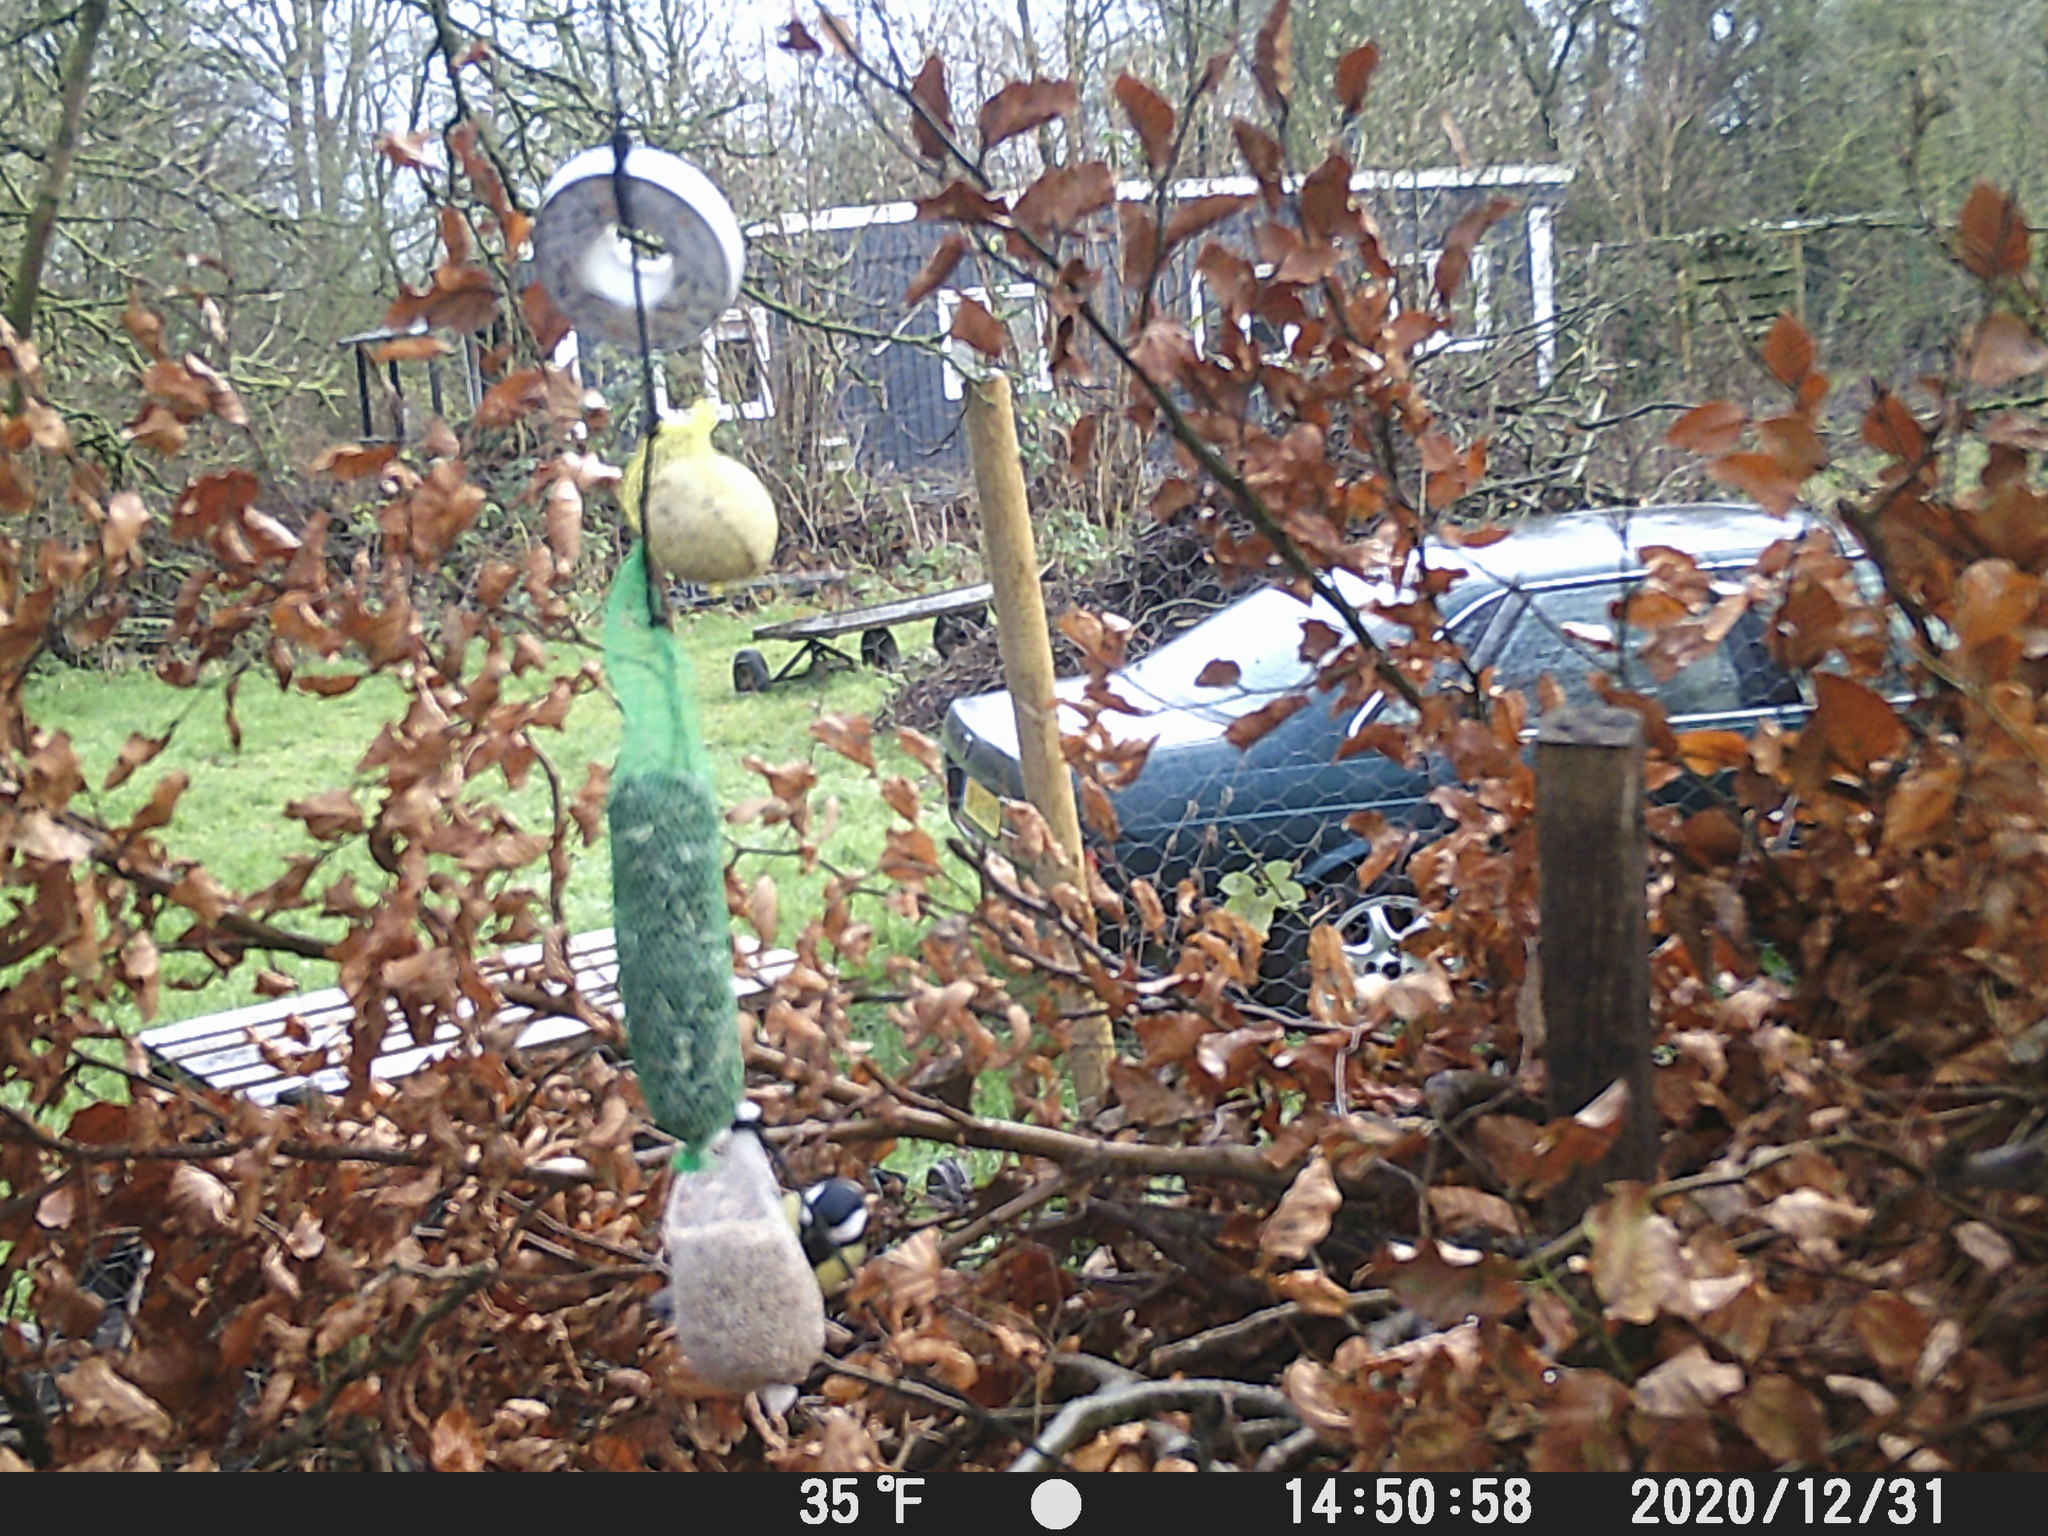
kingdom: Animalia
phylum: Chordata
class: Aves
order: Passeriformes
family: Paridae
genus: Parus
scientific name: Parus major
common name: Great tit
